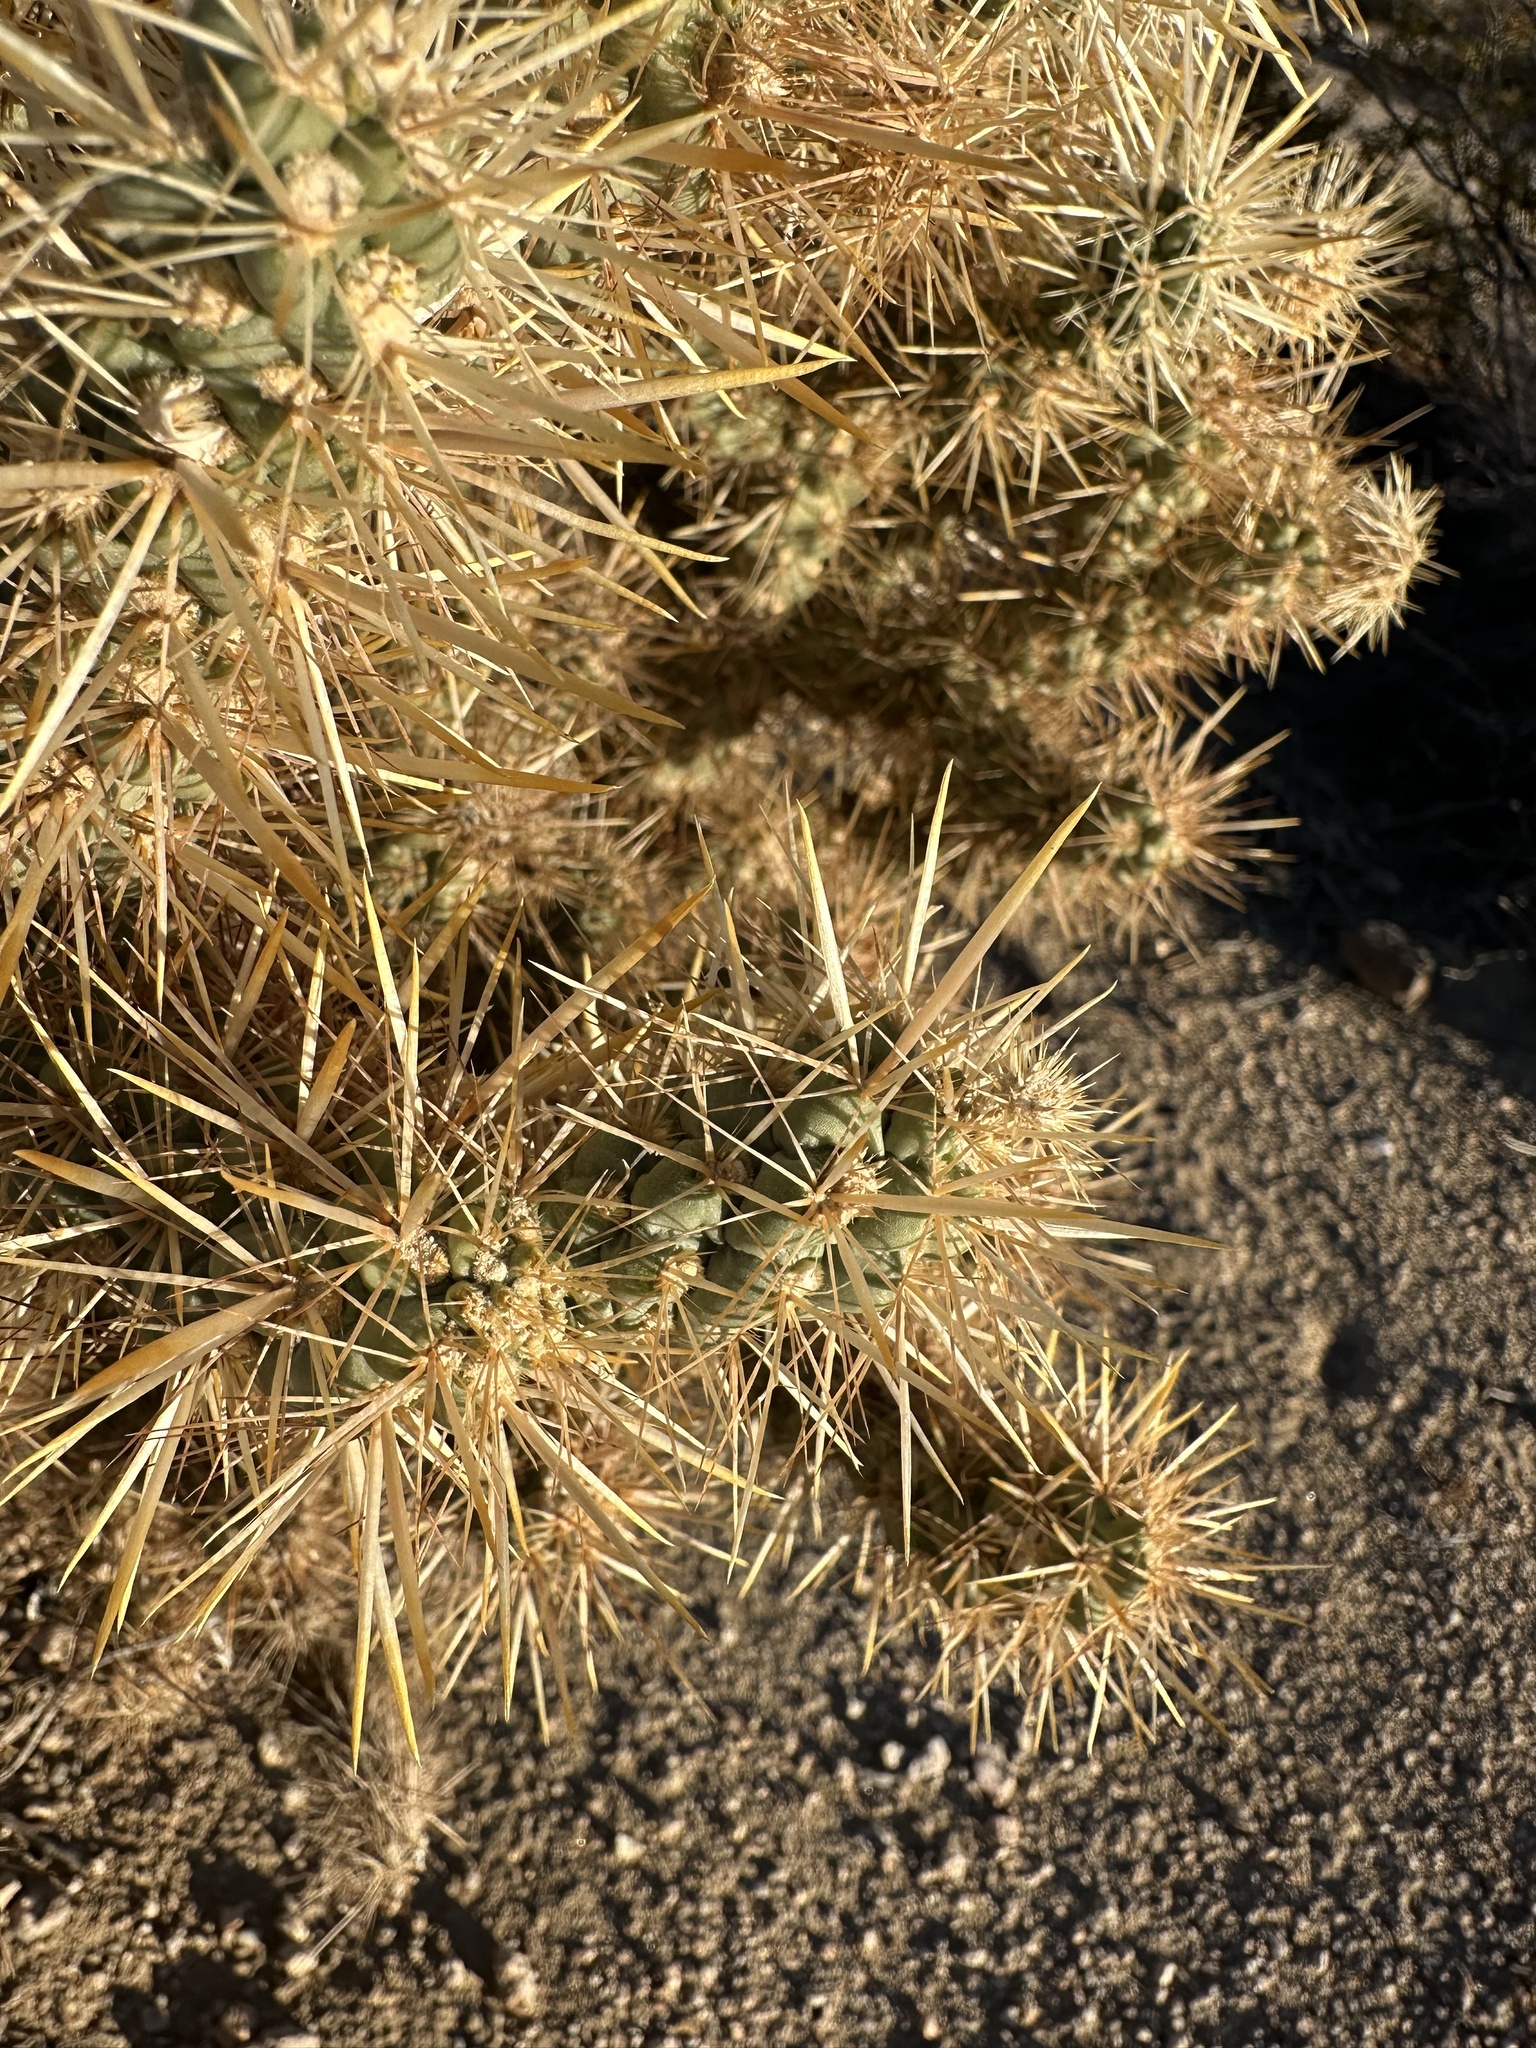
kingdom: Plantae
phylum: Tracheophyta
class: Magnoliopsida
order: Caryophyllales
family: Cactaceae
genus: Cylindropuntia
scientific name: Cylindropuntia echinocarpa
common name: Ground cholla
